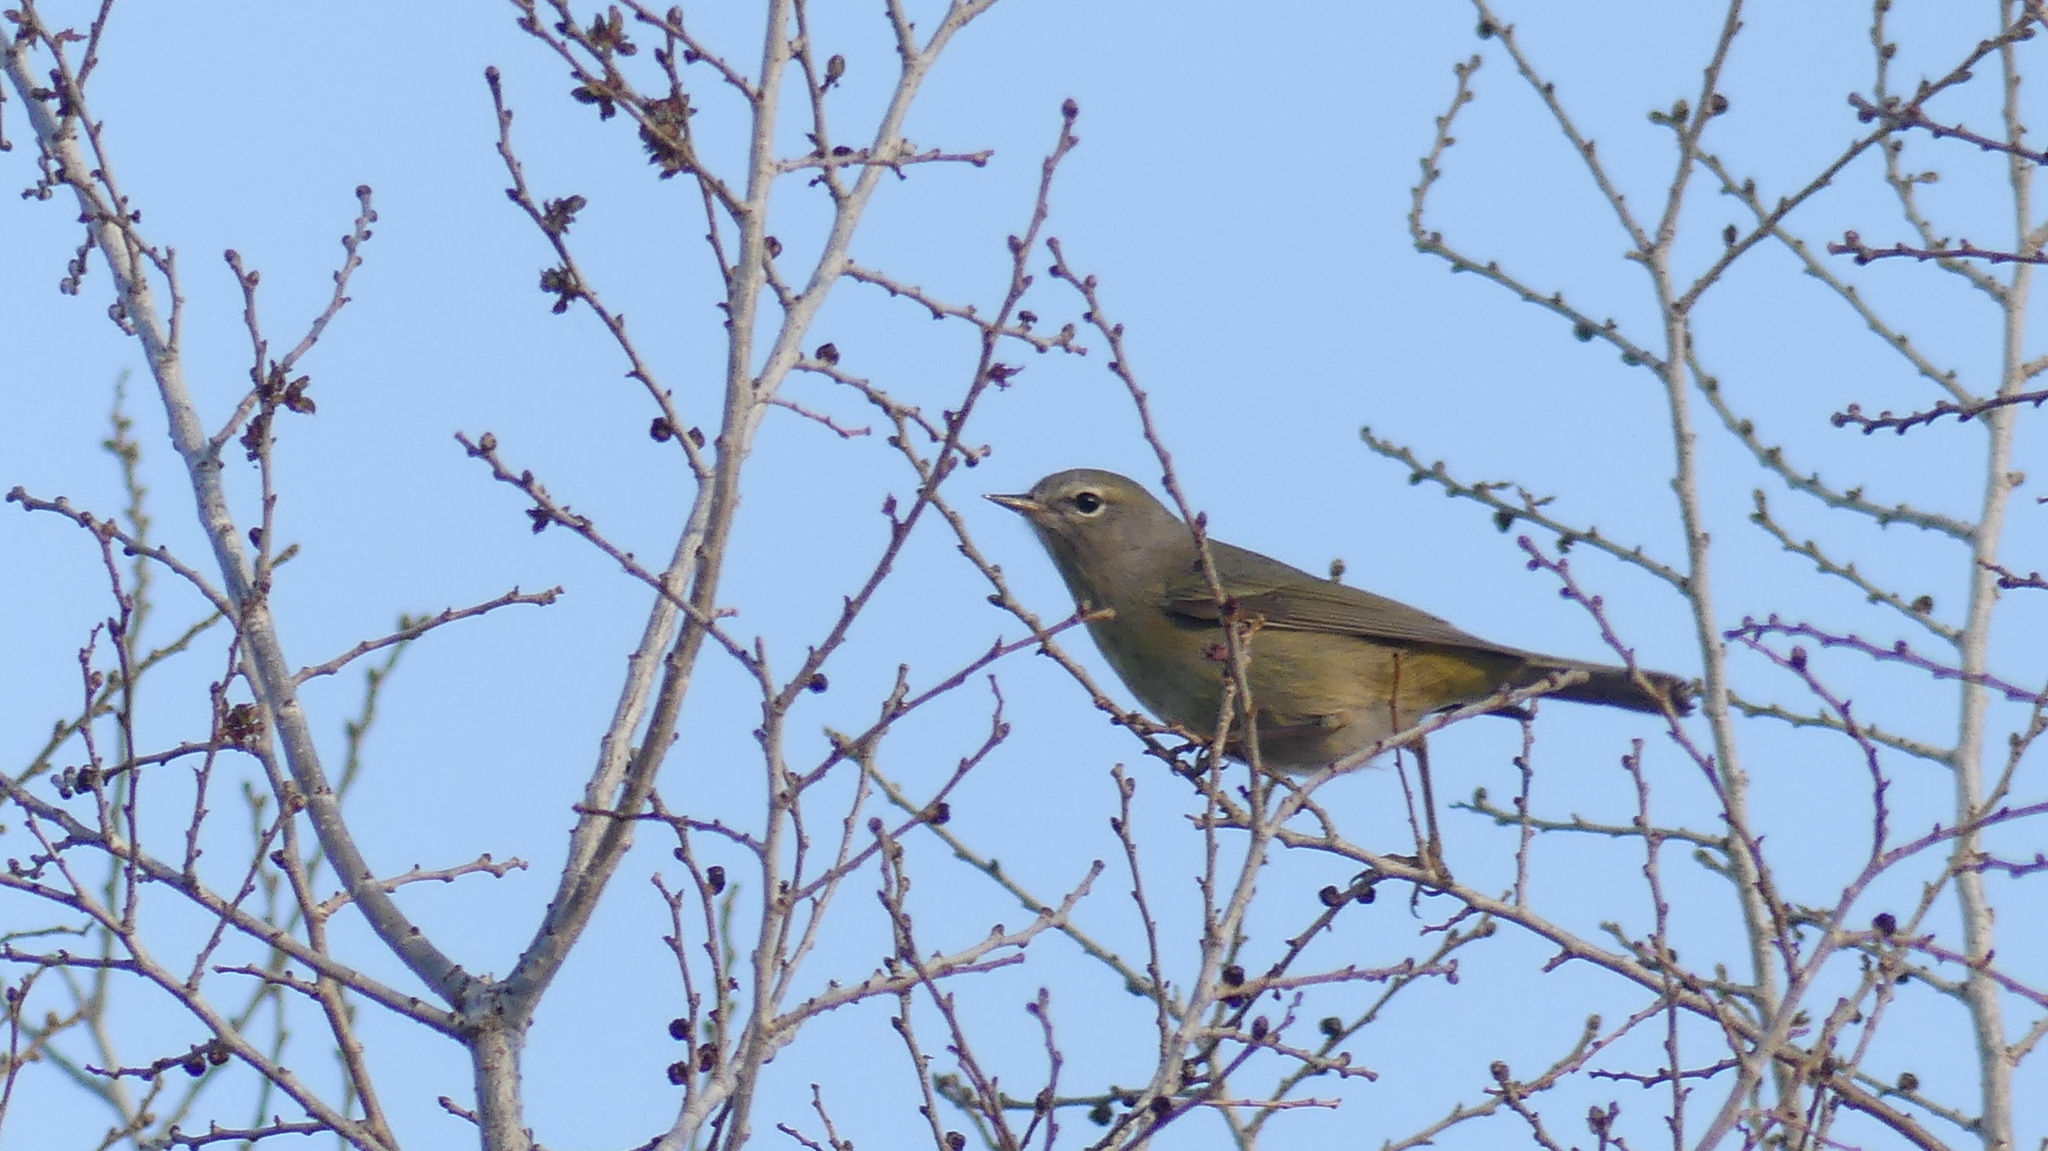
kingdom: Animalia
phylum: Chordata
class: Aves
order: Passeriformes
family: Parulidae
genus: Leiothlypis
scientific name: Leiothlypis celata
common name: Orange-crowned warbler
